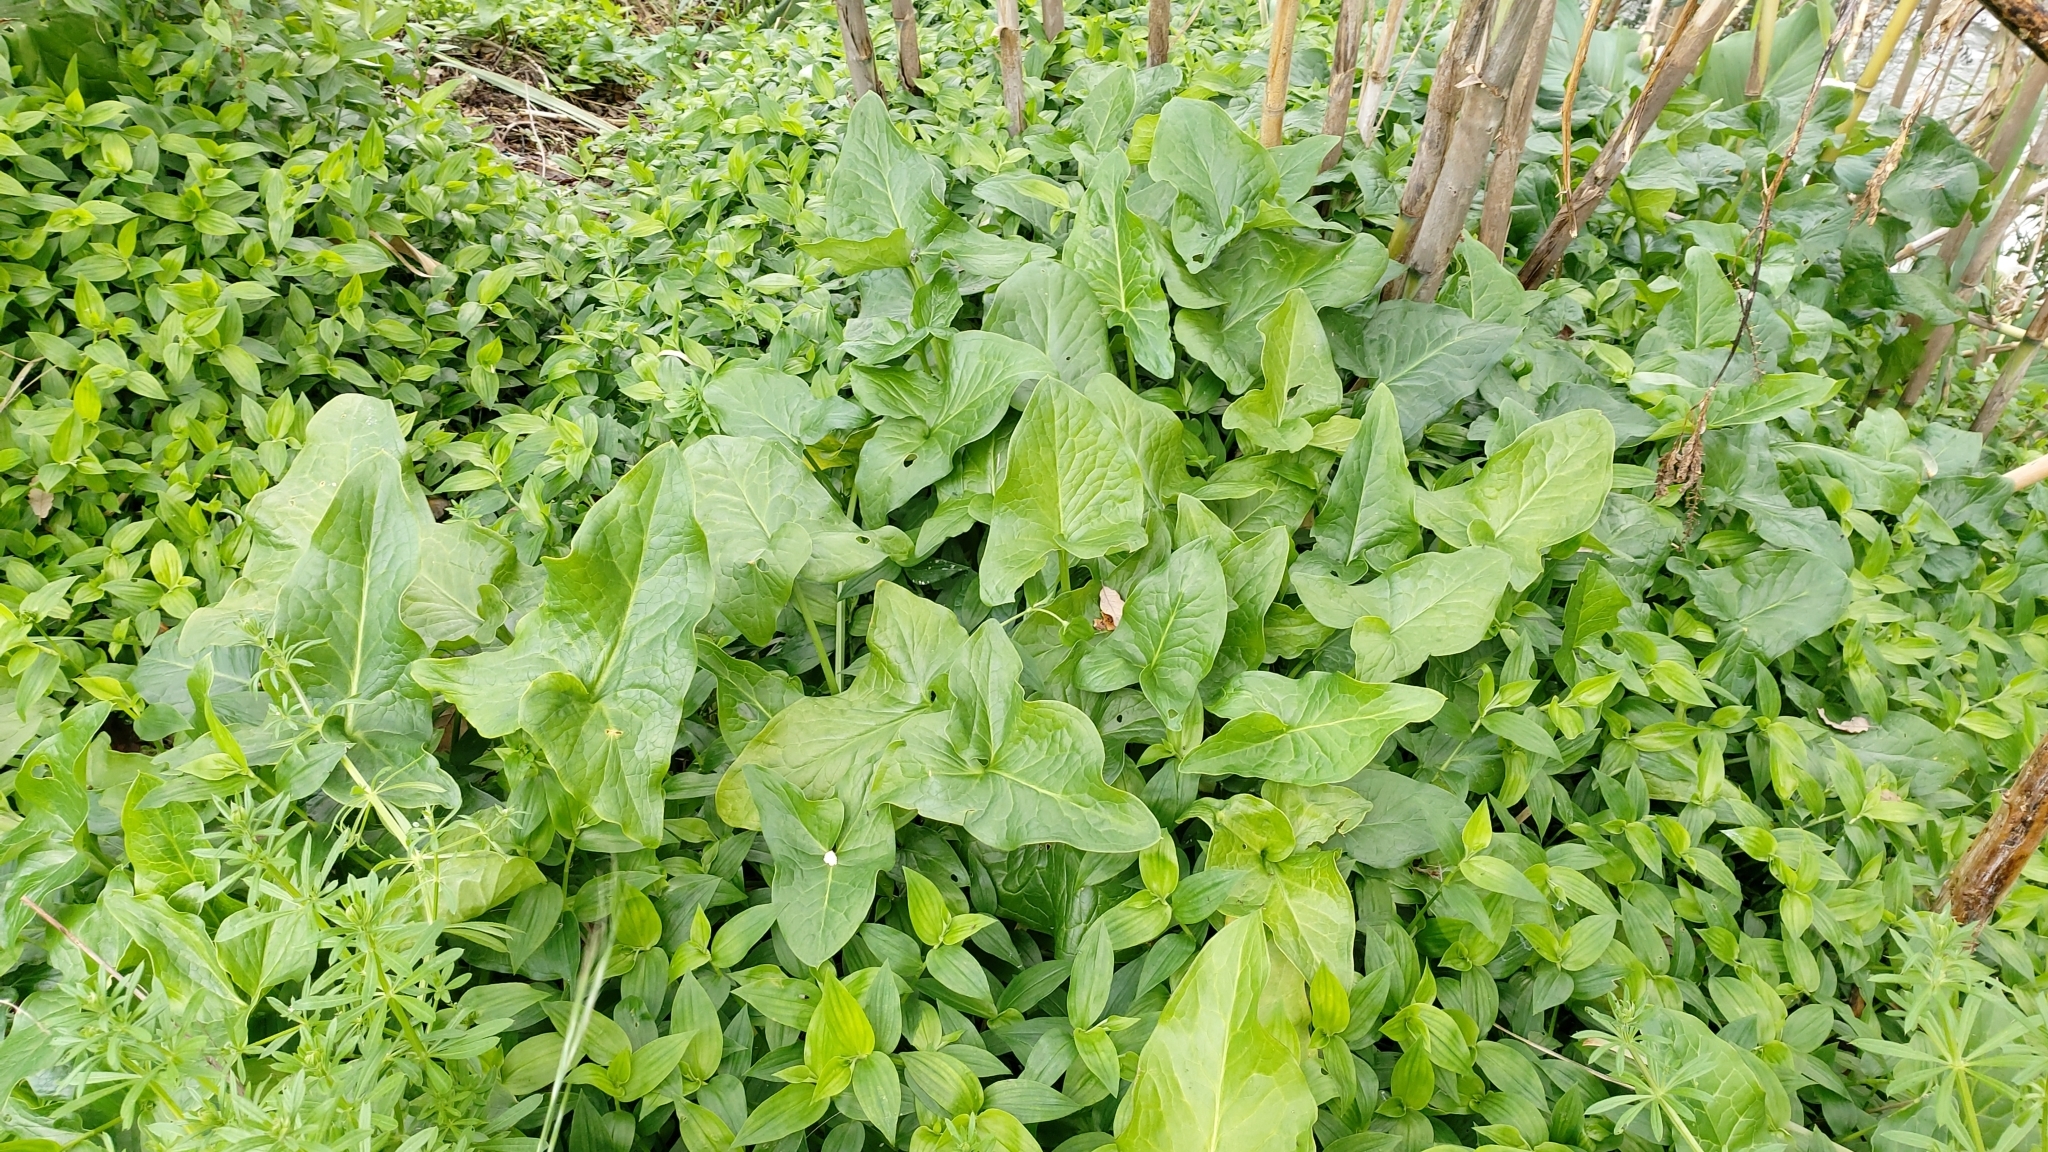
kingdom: Plantae
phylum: Tracheophyta
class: Liliopsida
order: Alismatales
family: Araceae
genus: Zantedeschia
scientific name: Zantedeschia aethiopica
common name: Altar-lily
